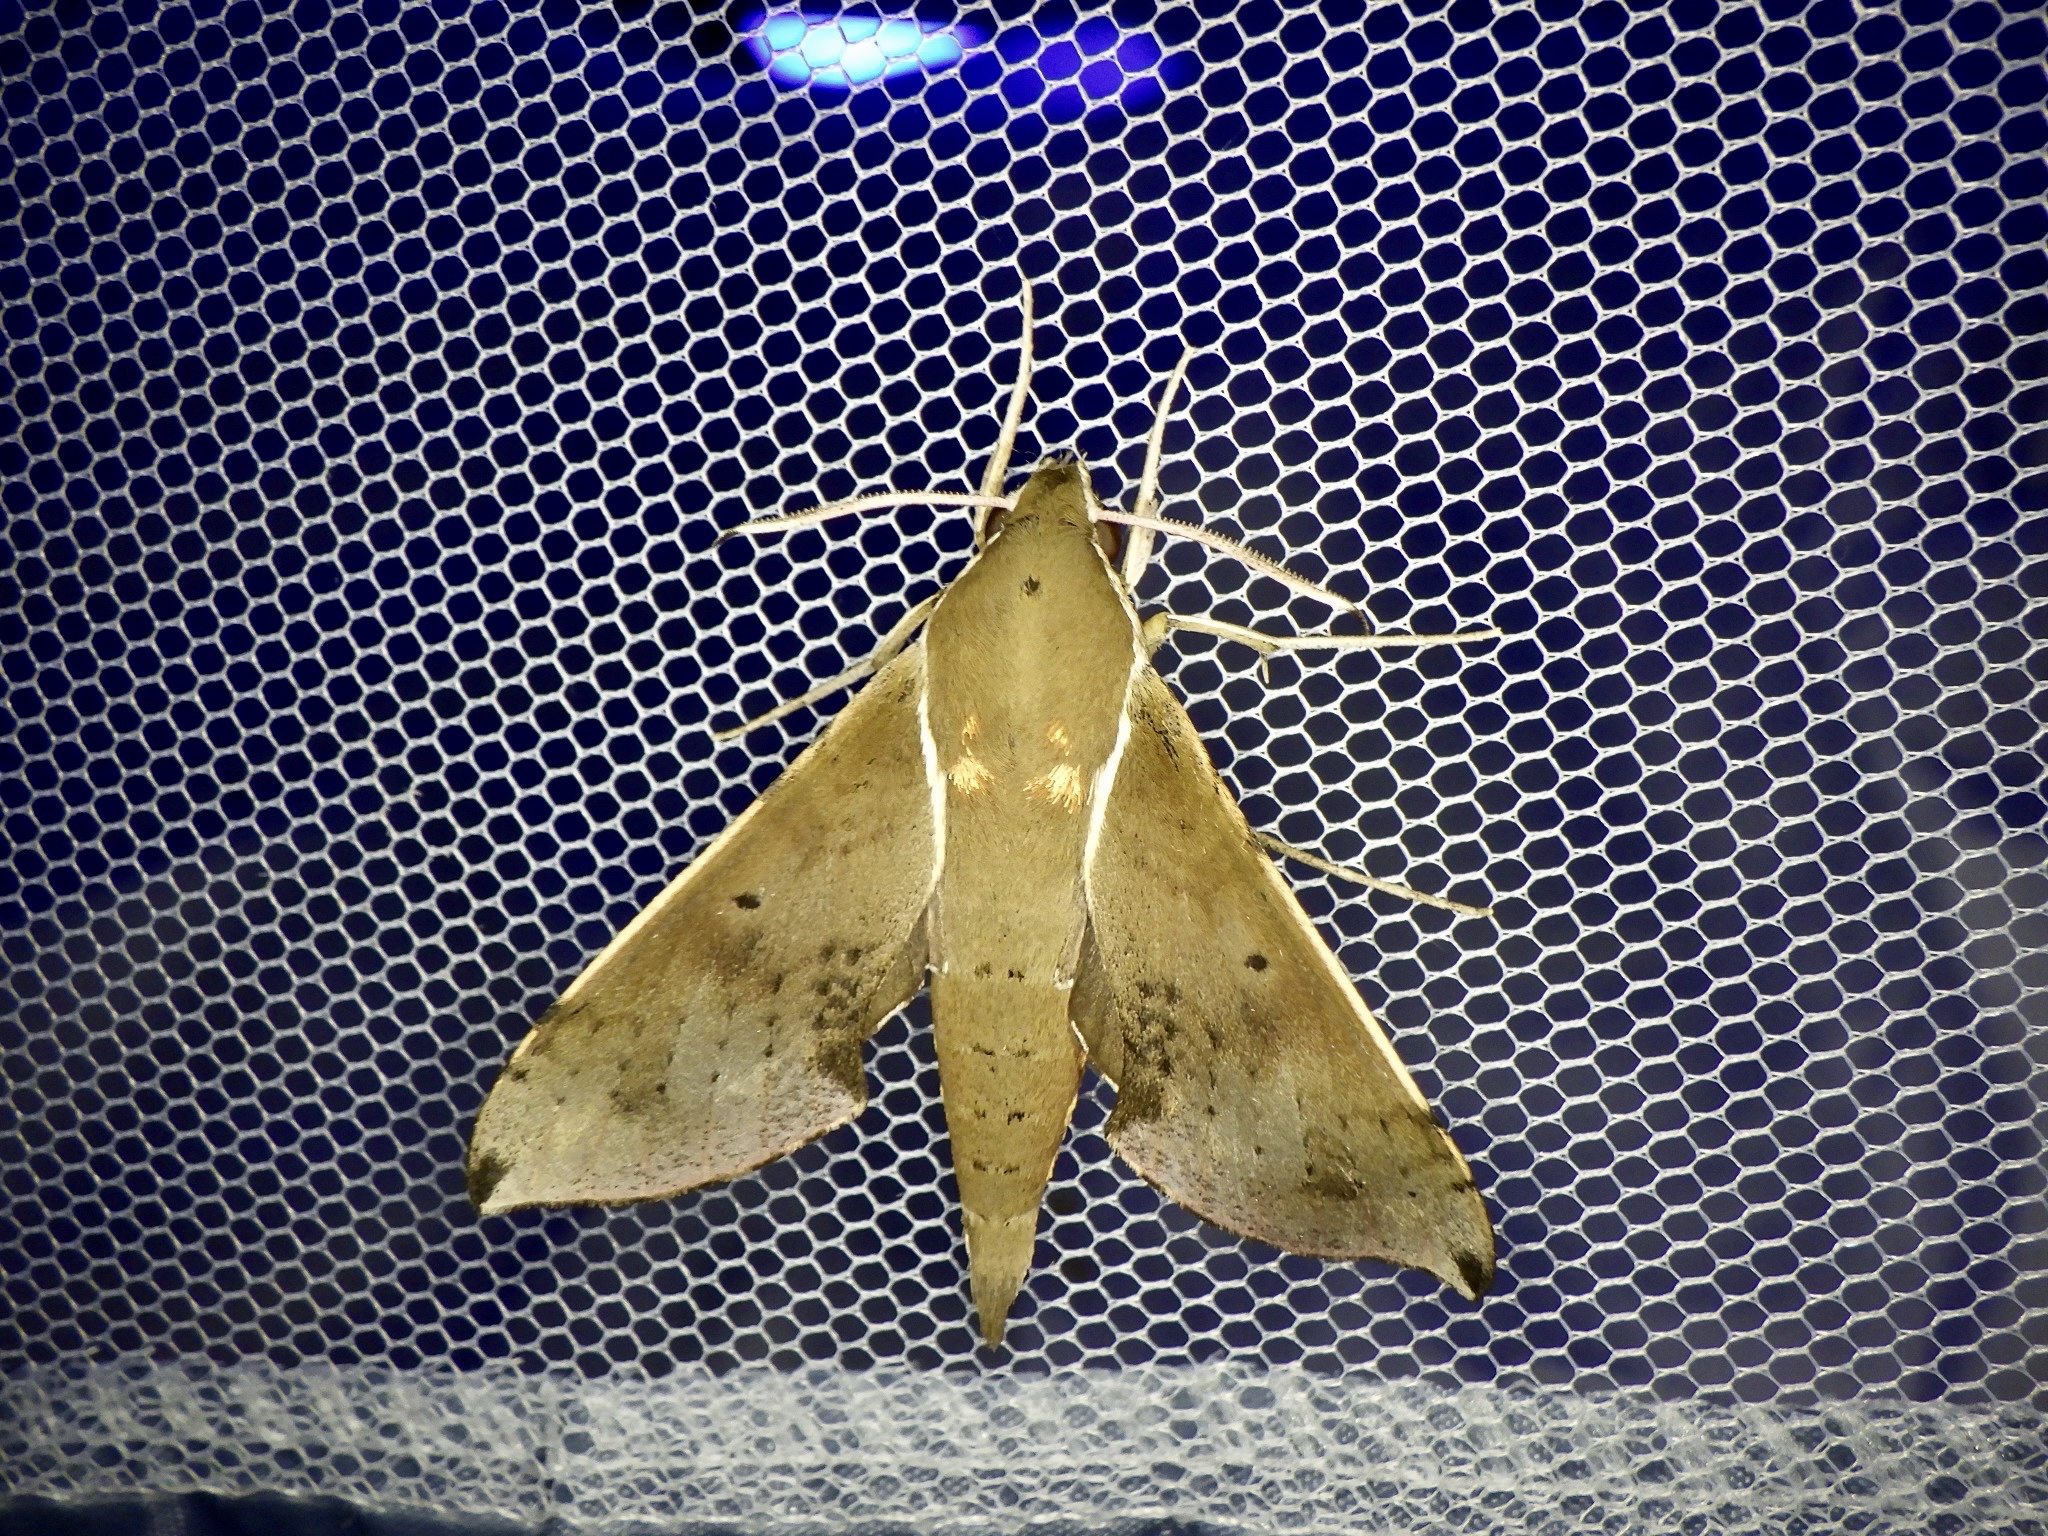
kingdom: Animalia
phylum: Arthropoda
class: Insecta
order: Lepidoptera
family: Sphingidae
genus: Rhagastis
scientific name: Rhagastis mongoliana
